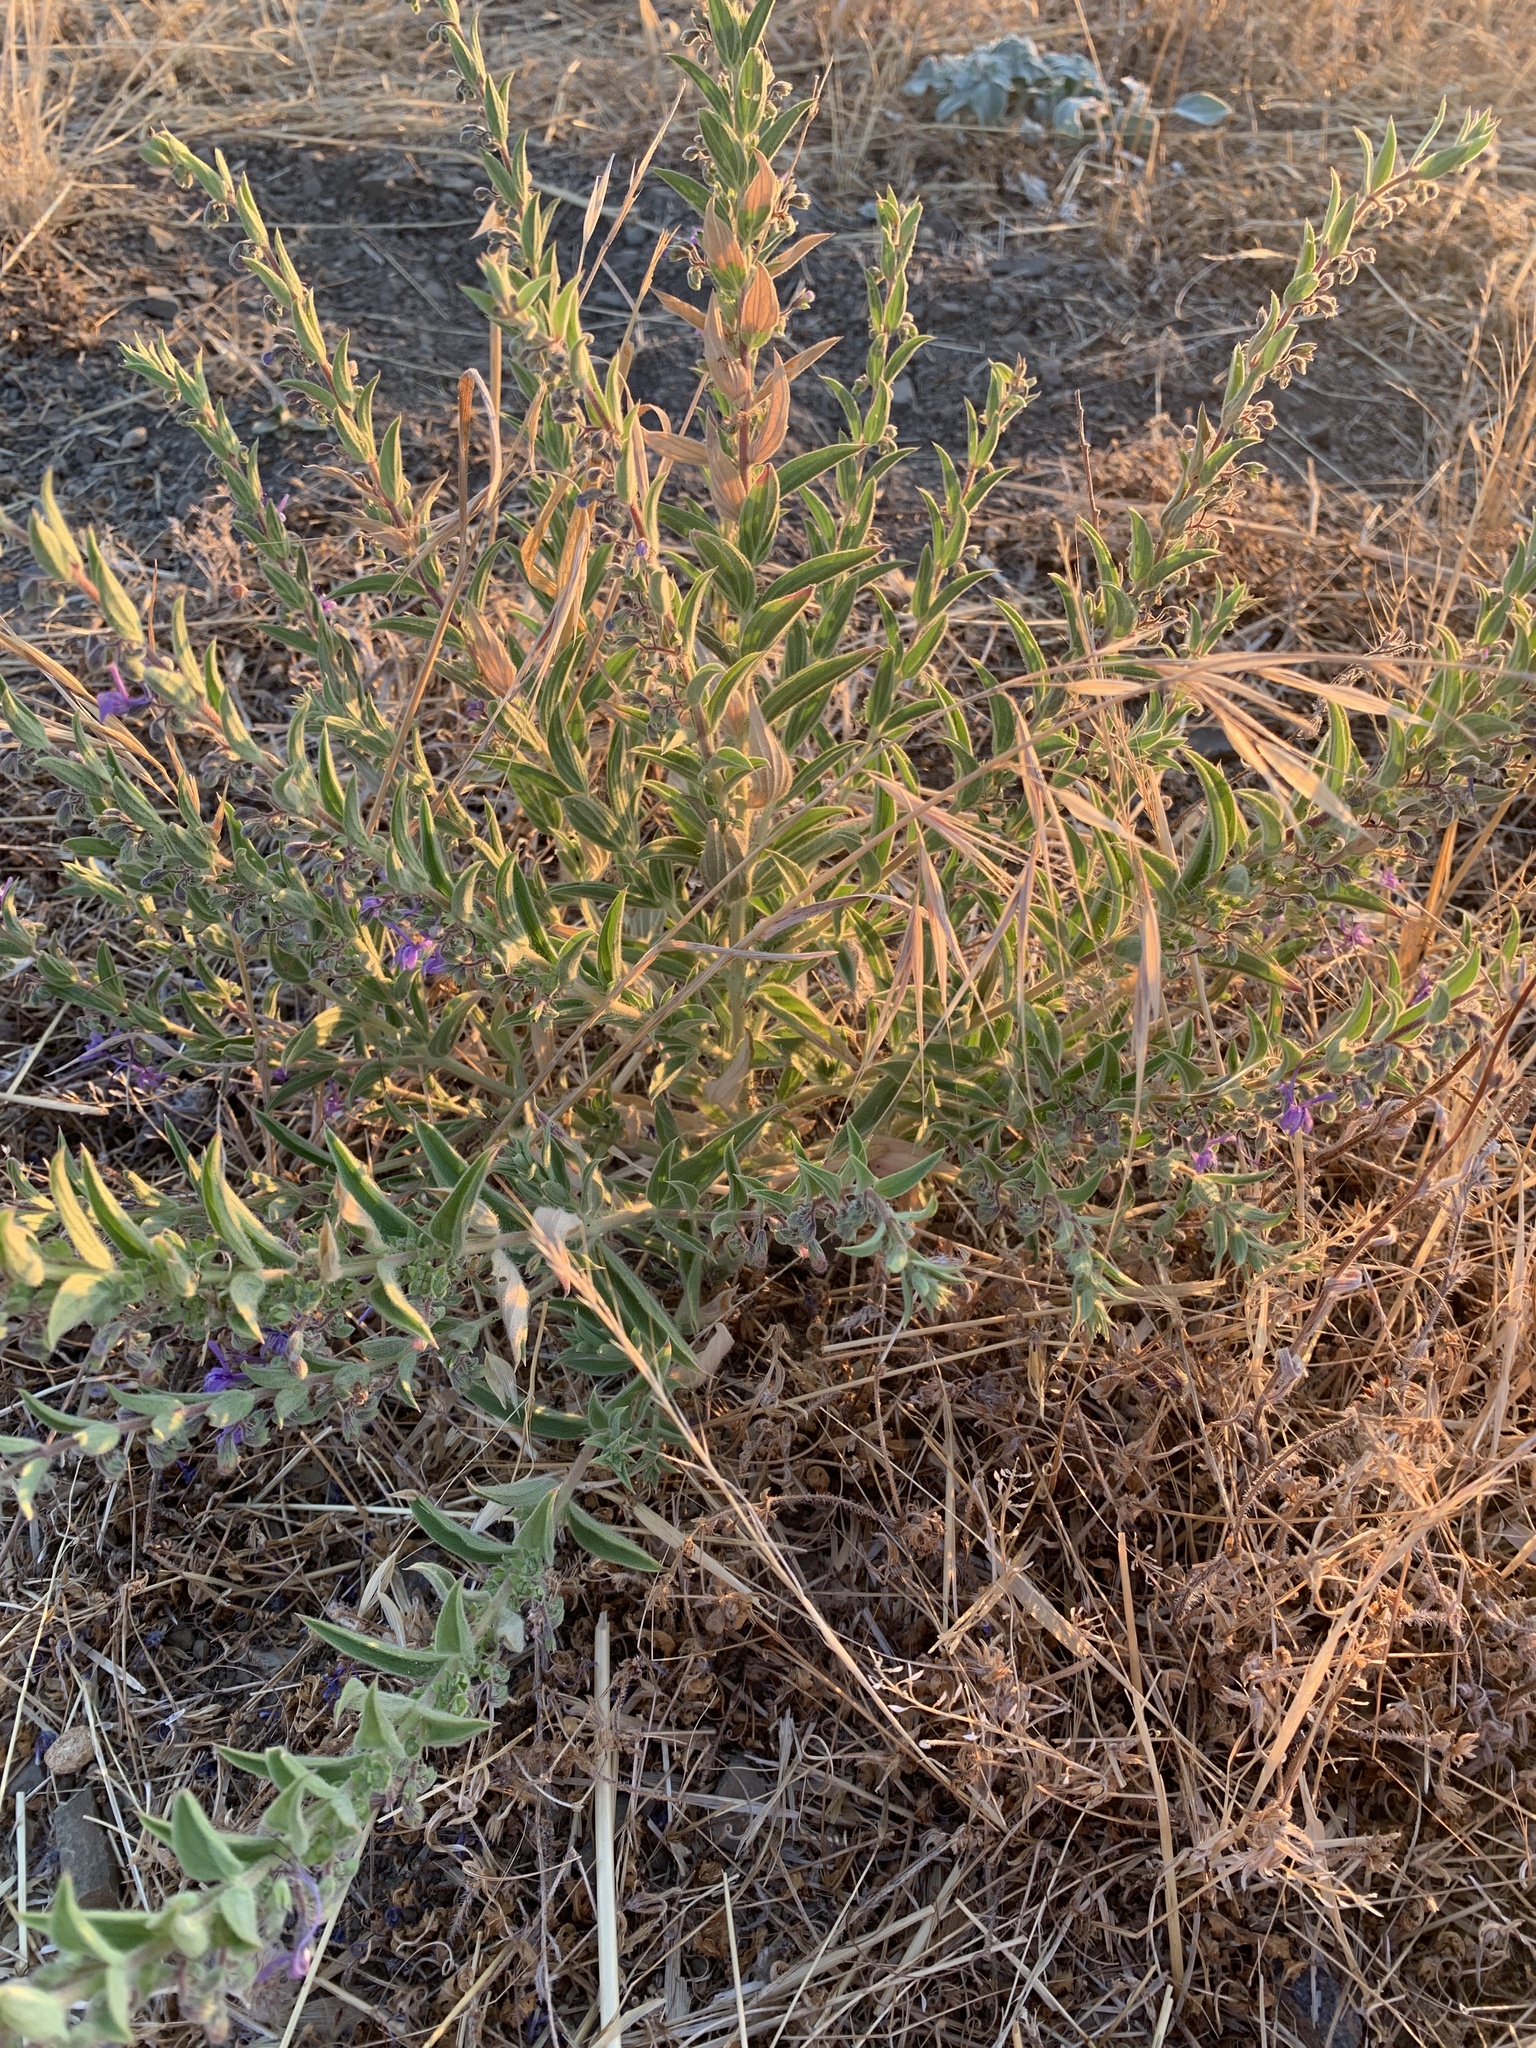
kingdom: Plantae
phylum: Tracheophyta
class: Magnoliopsida
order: Lamiales
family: Lamiaceae
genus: Trichostema
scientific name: Trichostema lanceolatum
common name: Vinegar-weed
